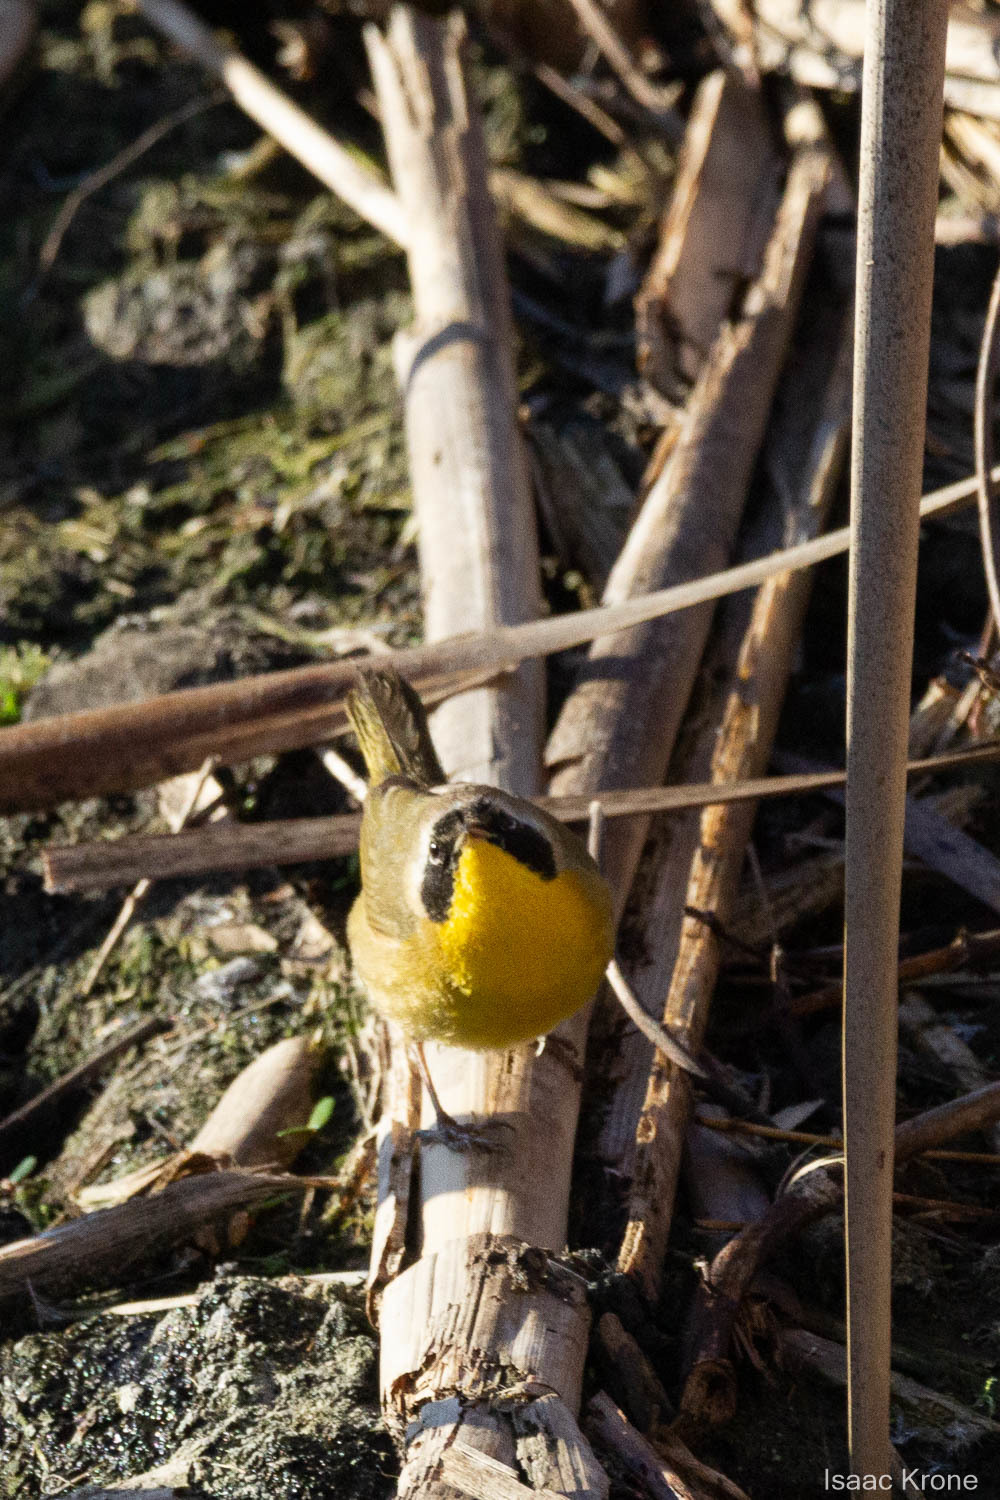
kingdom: Animalia
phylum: Chordata
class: Aves
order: Passeriformes
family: Parulidae
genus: Geothlypis
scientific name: Geothlypis trichas
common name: Common yellowthroat
